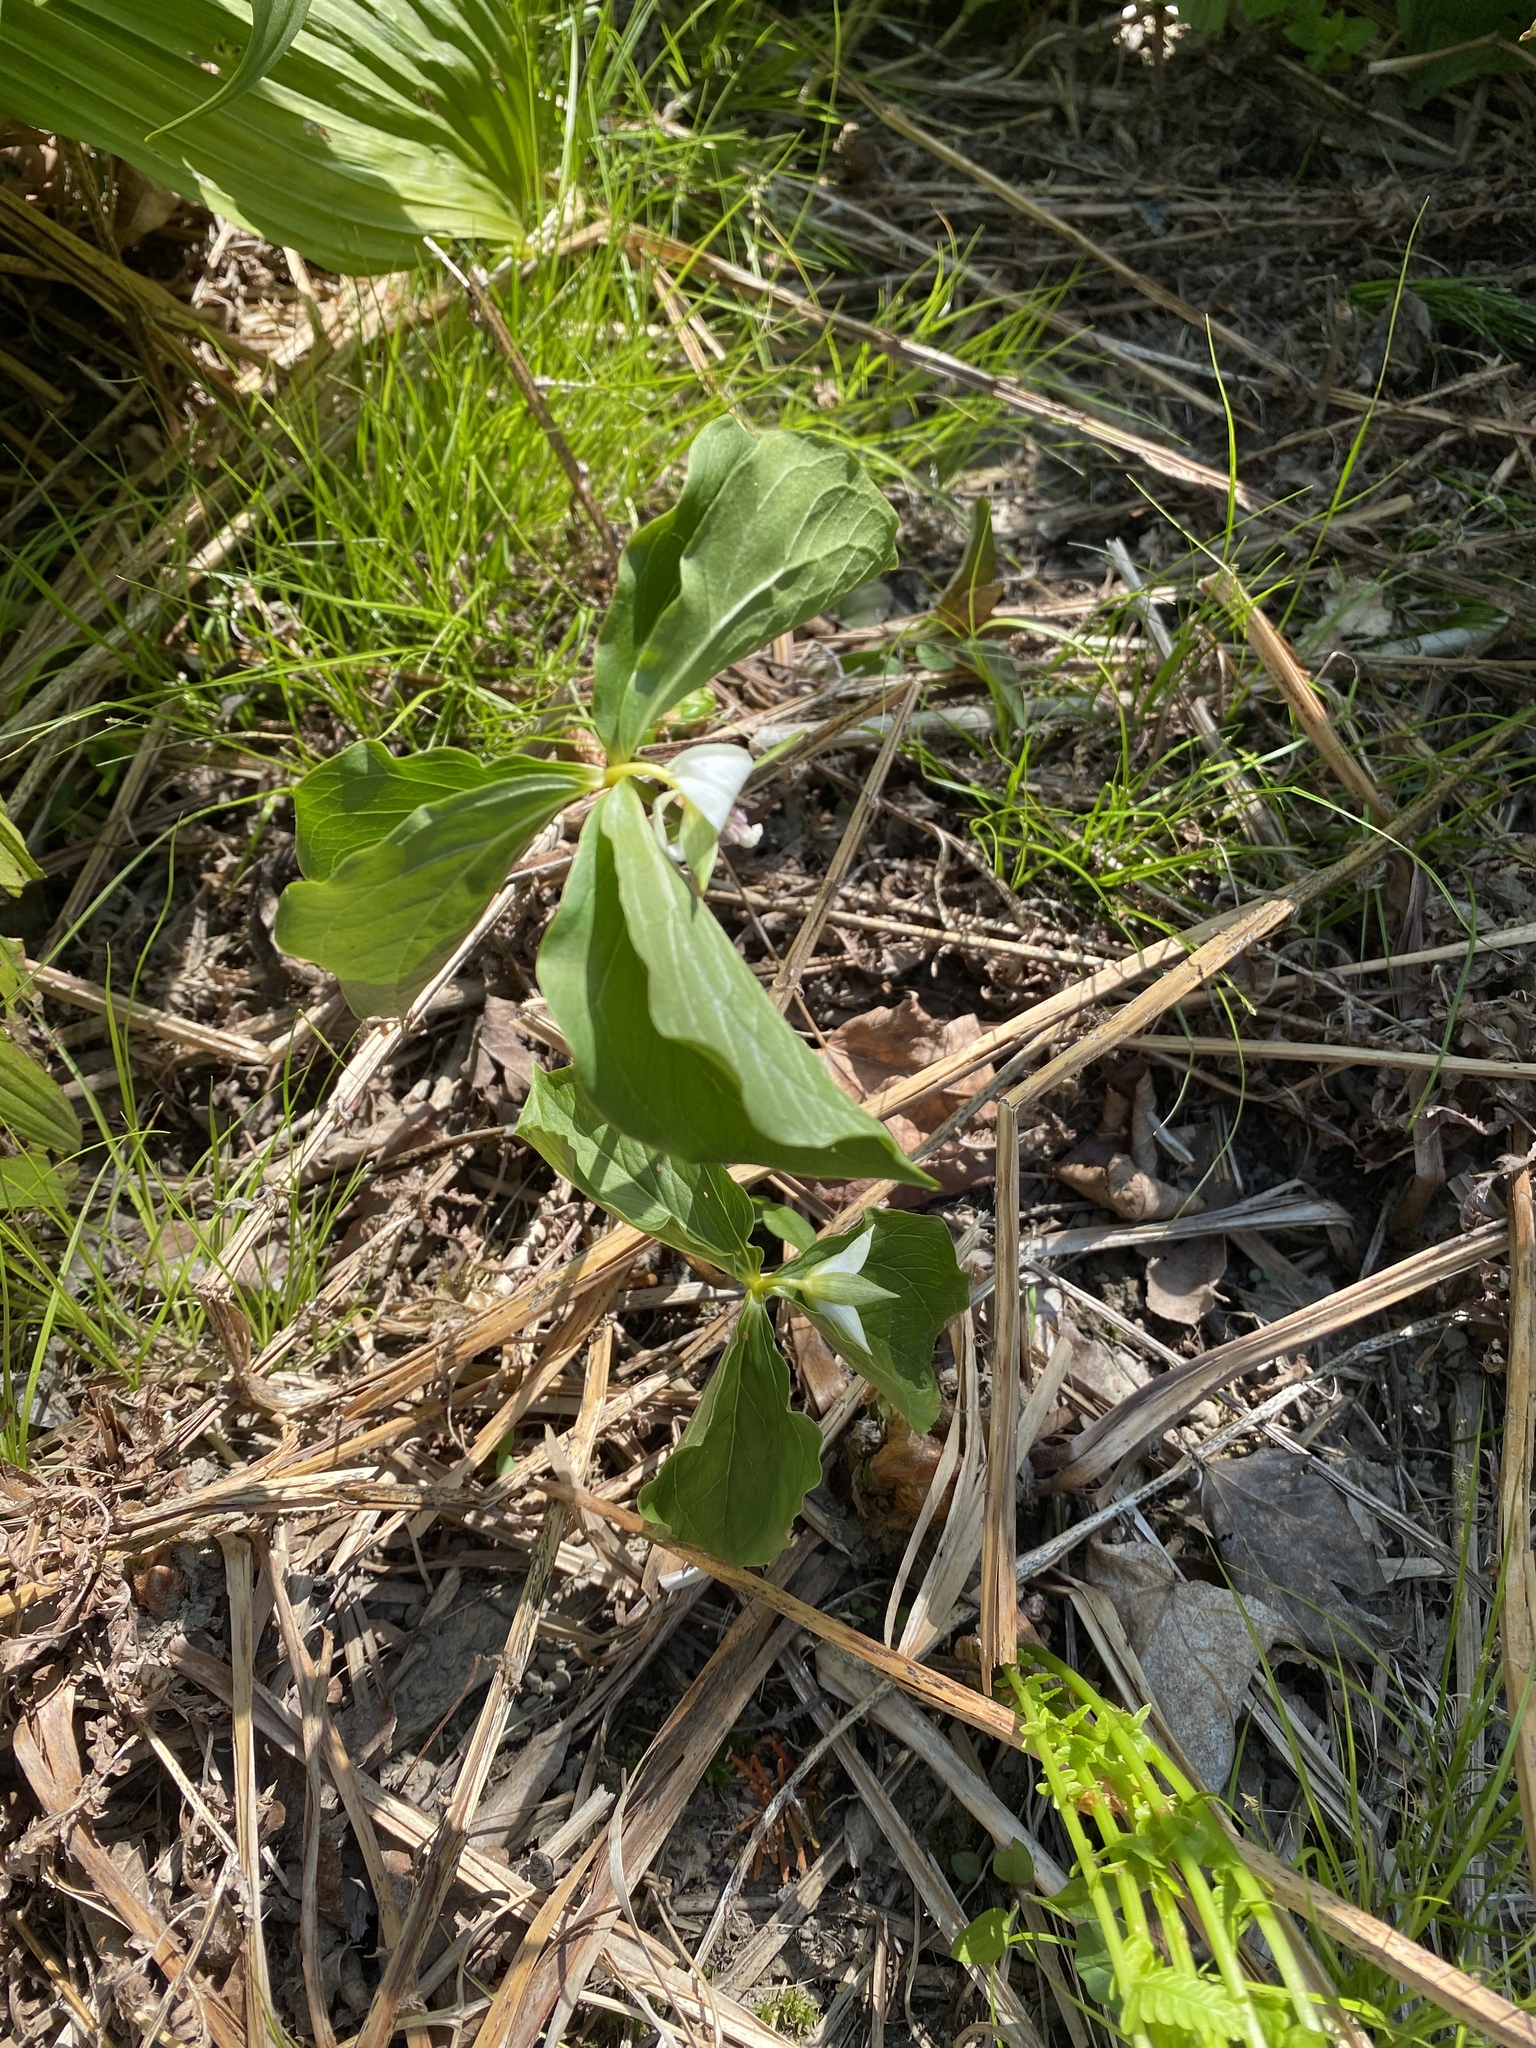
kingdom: Plantae
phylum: Tracheophyta
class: Liliopsida
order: Liliales
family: Melanthiaceae
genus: Trillium
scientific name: Trillium cernuum
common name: Nodding trillium
